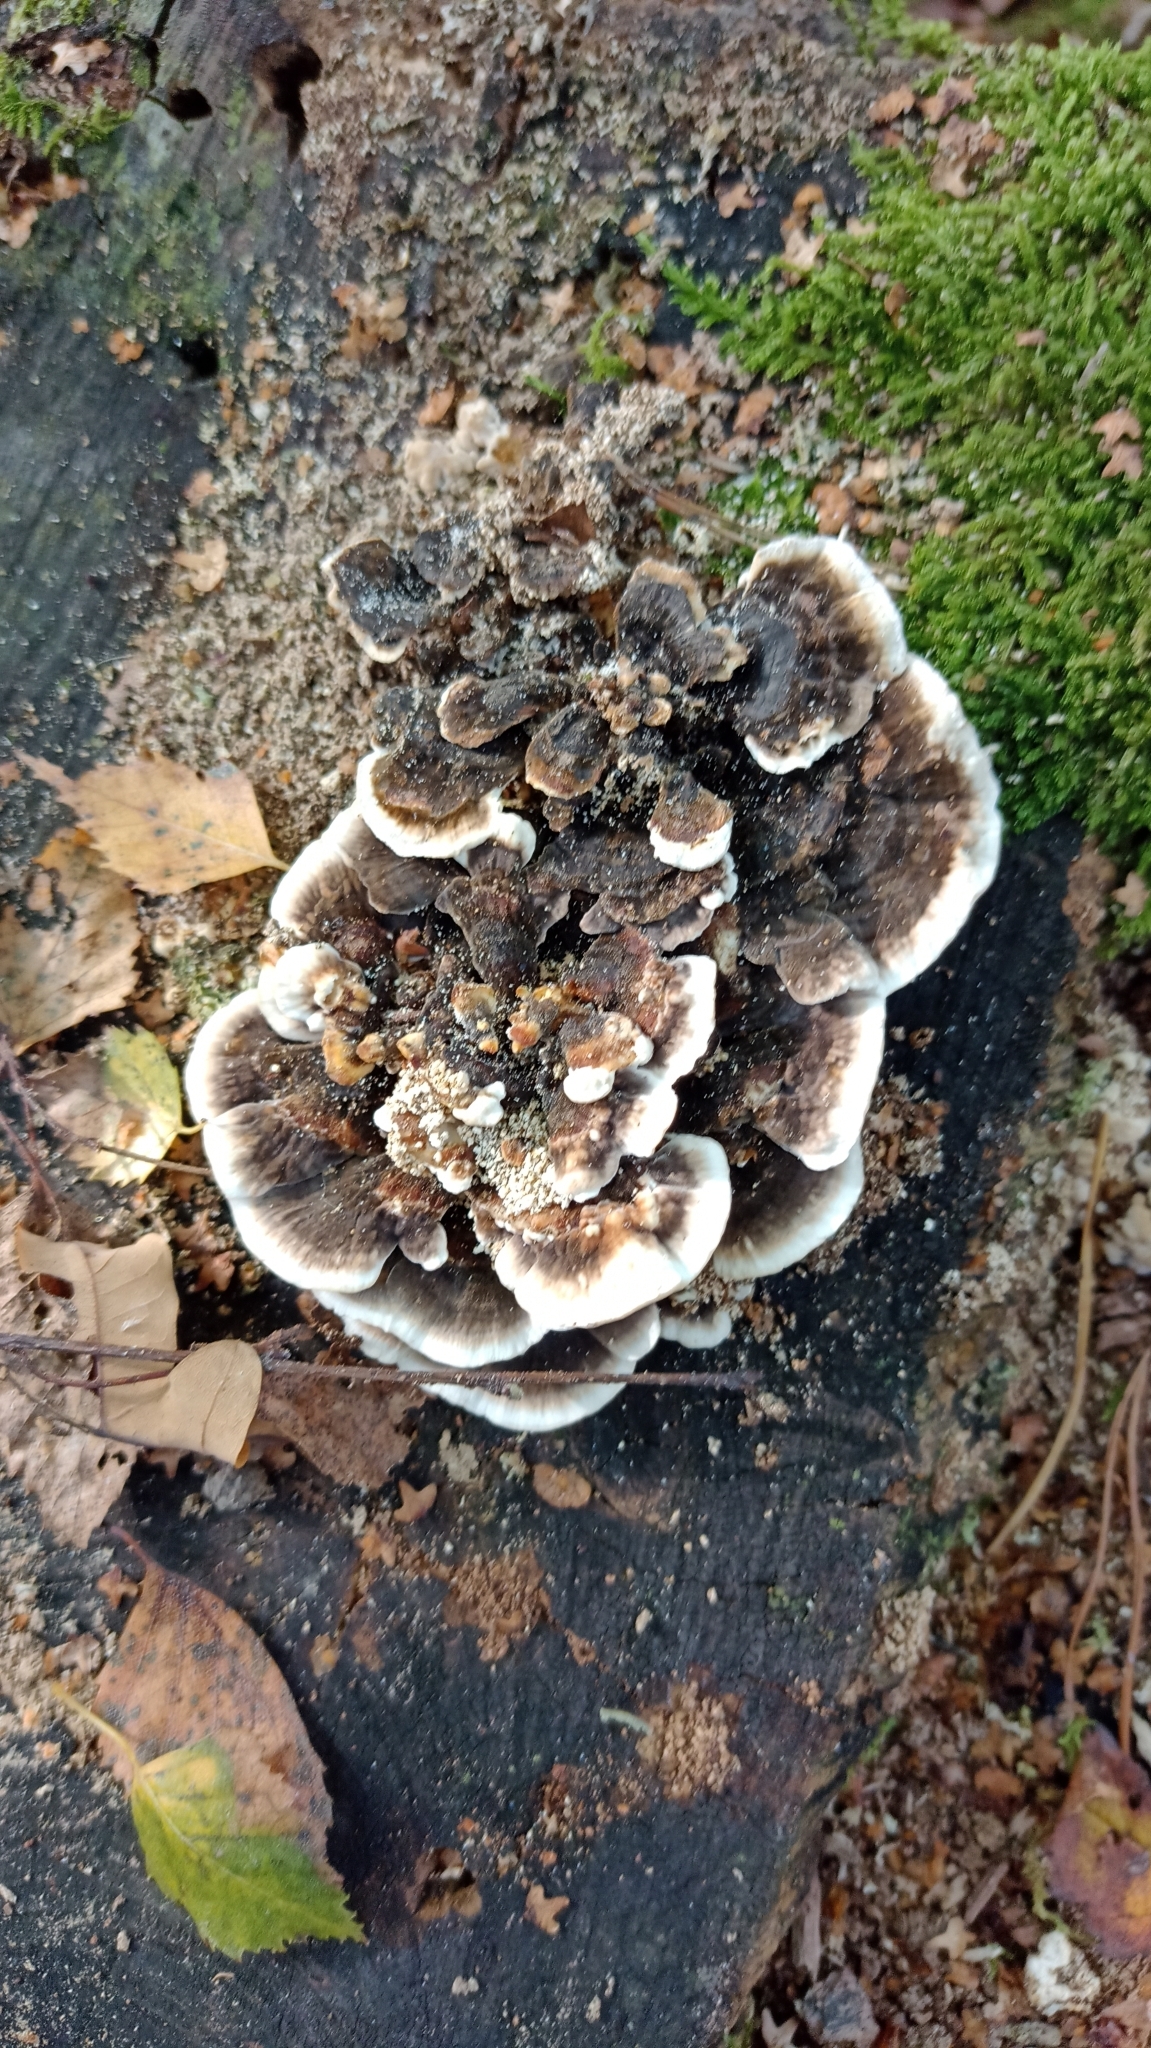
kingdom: Fungi
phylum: Basidiomycota
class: Agaricomycetes
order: Polyporales
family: Phanerochaetaceae
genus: Bjerkandera
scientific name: Bjerkandera adusta
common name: Smoky bracket
